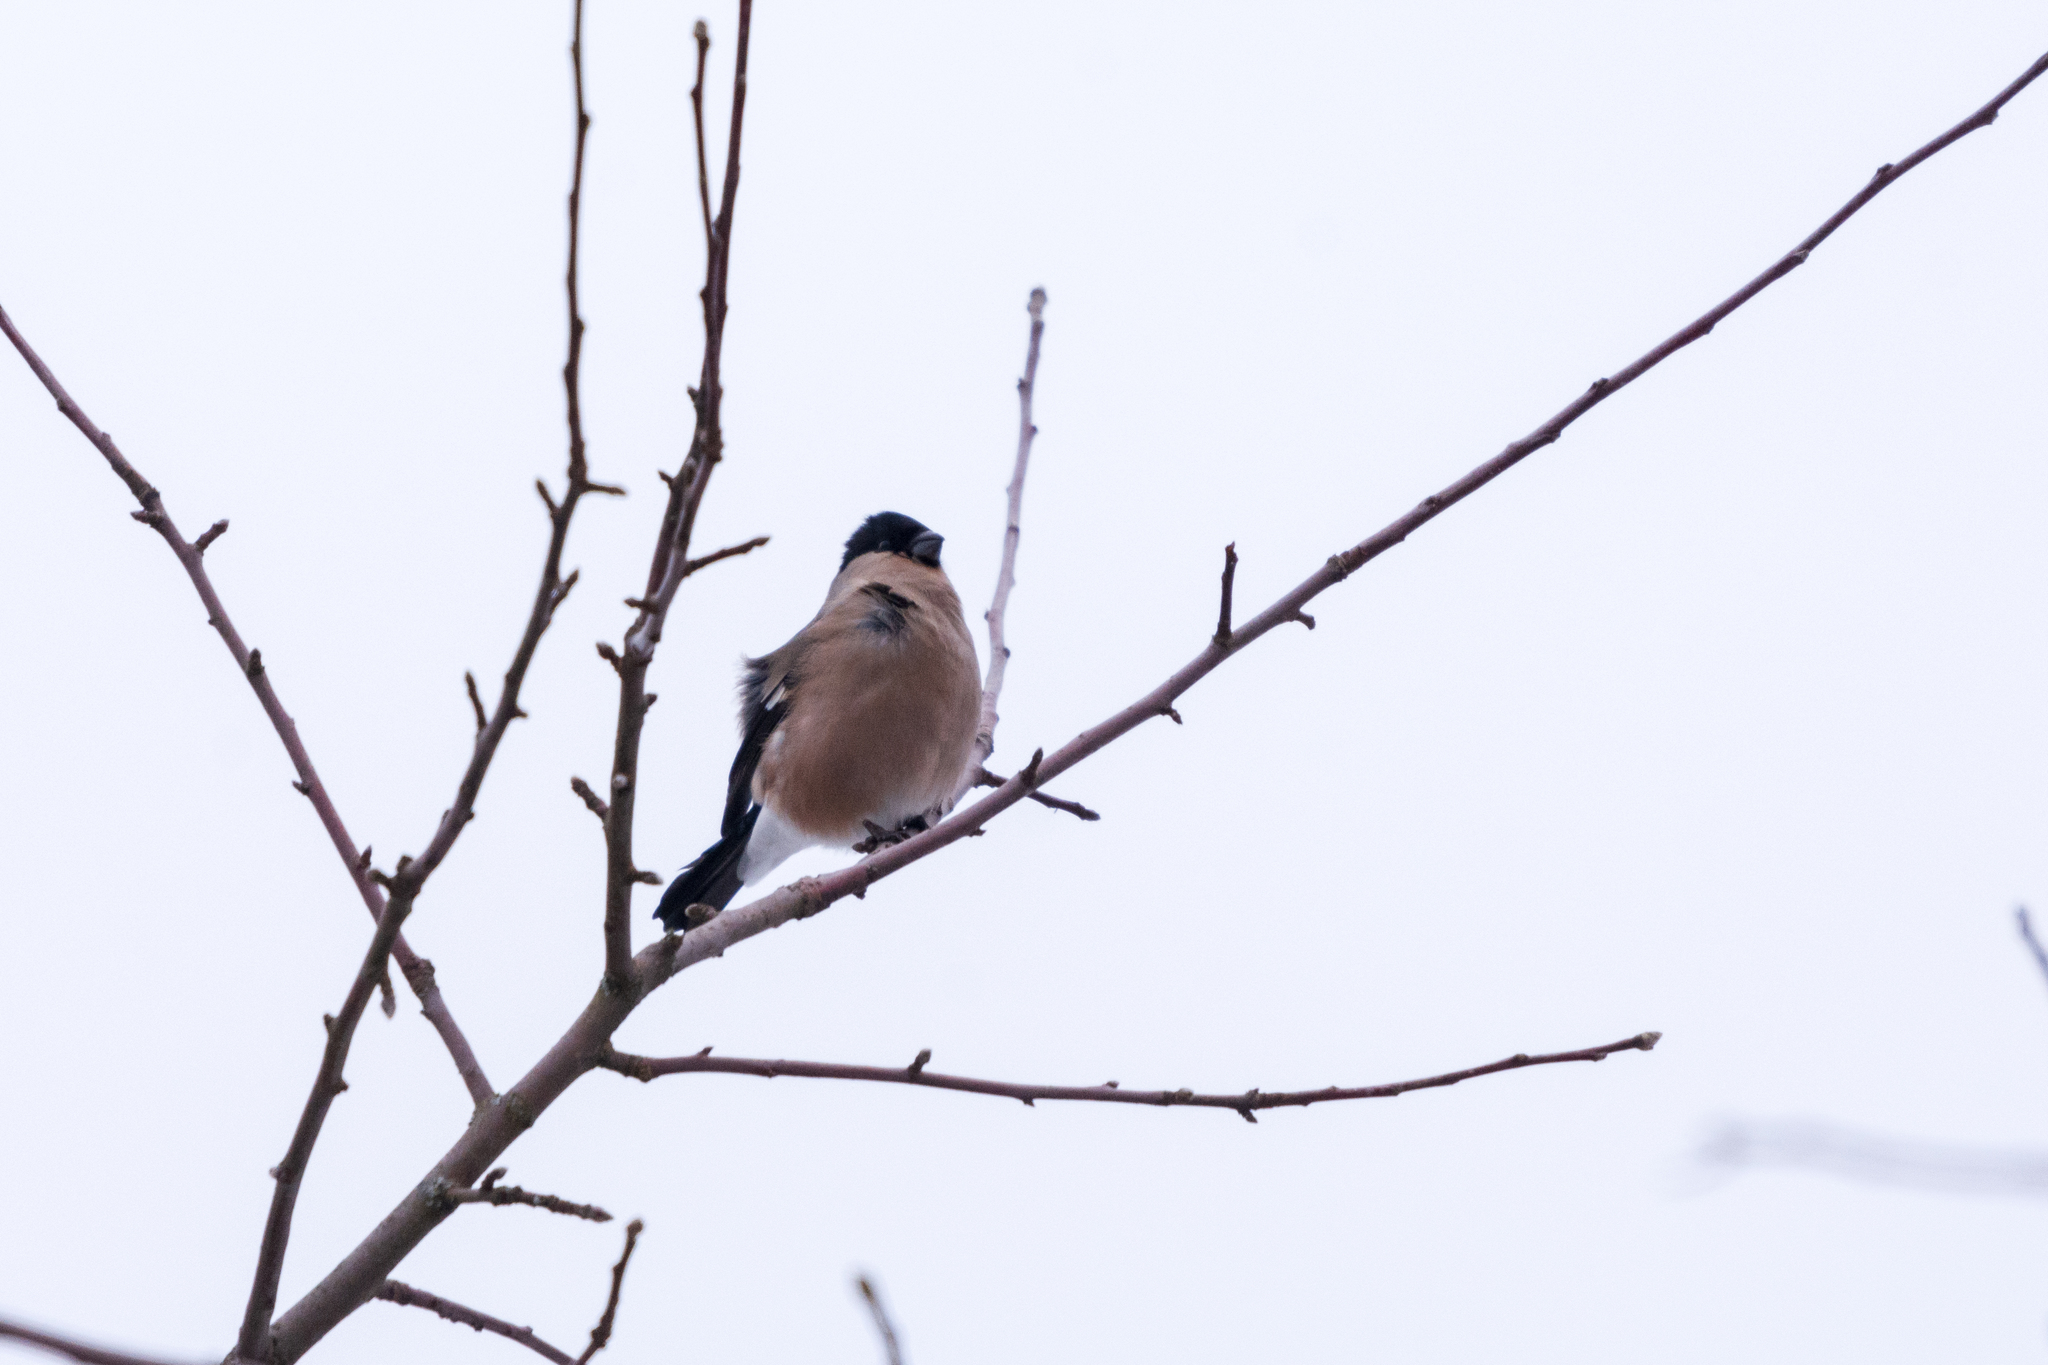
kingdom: Animalia
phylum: Chordata
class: Aves
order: Passeriformes
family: Fringillidae
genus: Pyrrhula
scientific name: Pyrrhula pyrrhula
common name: Eurasian bullfinch
